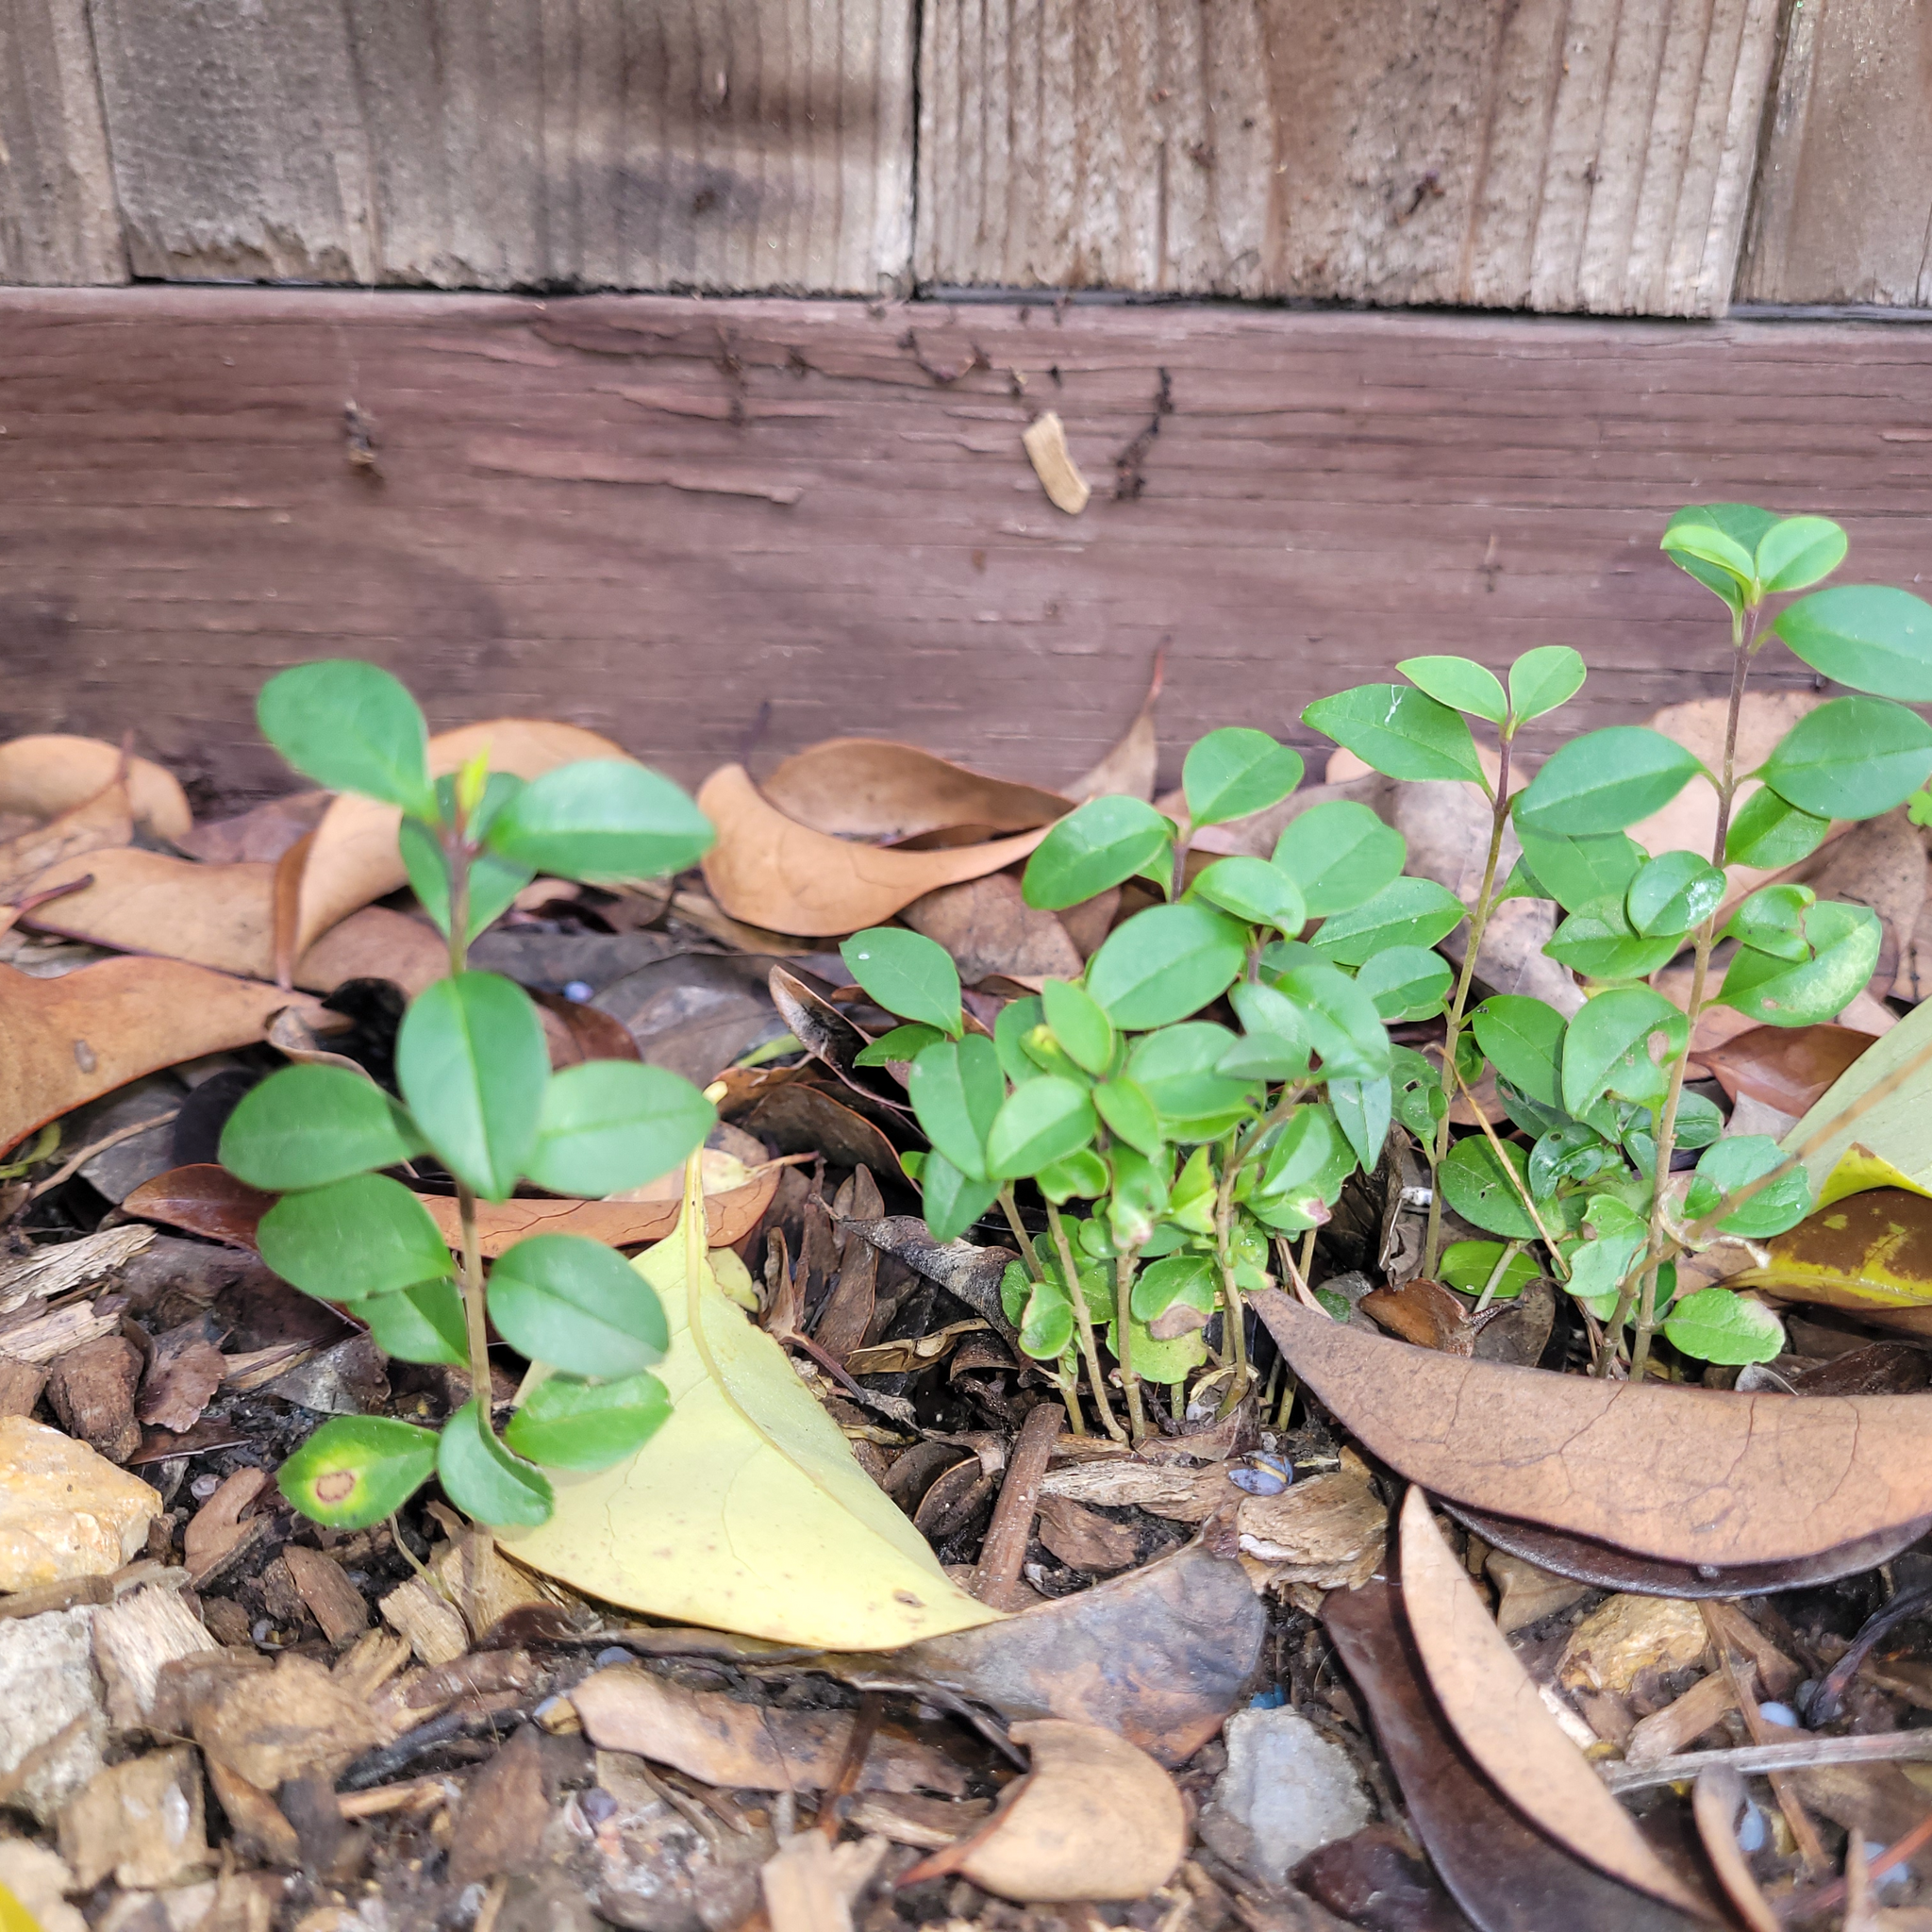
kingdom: Plantae
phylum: Tracheophyta
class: Magnoliopsida
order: Lamiales
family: Oleaceae
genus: Ligustrum
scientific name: Ligustrum lucidum
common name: Glossy privet
